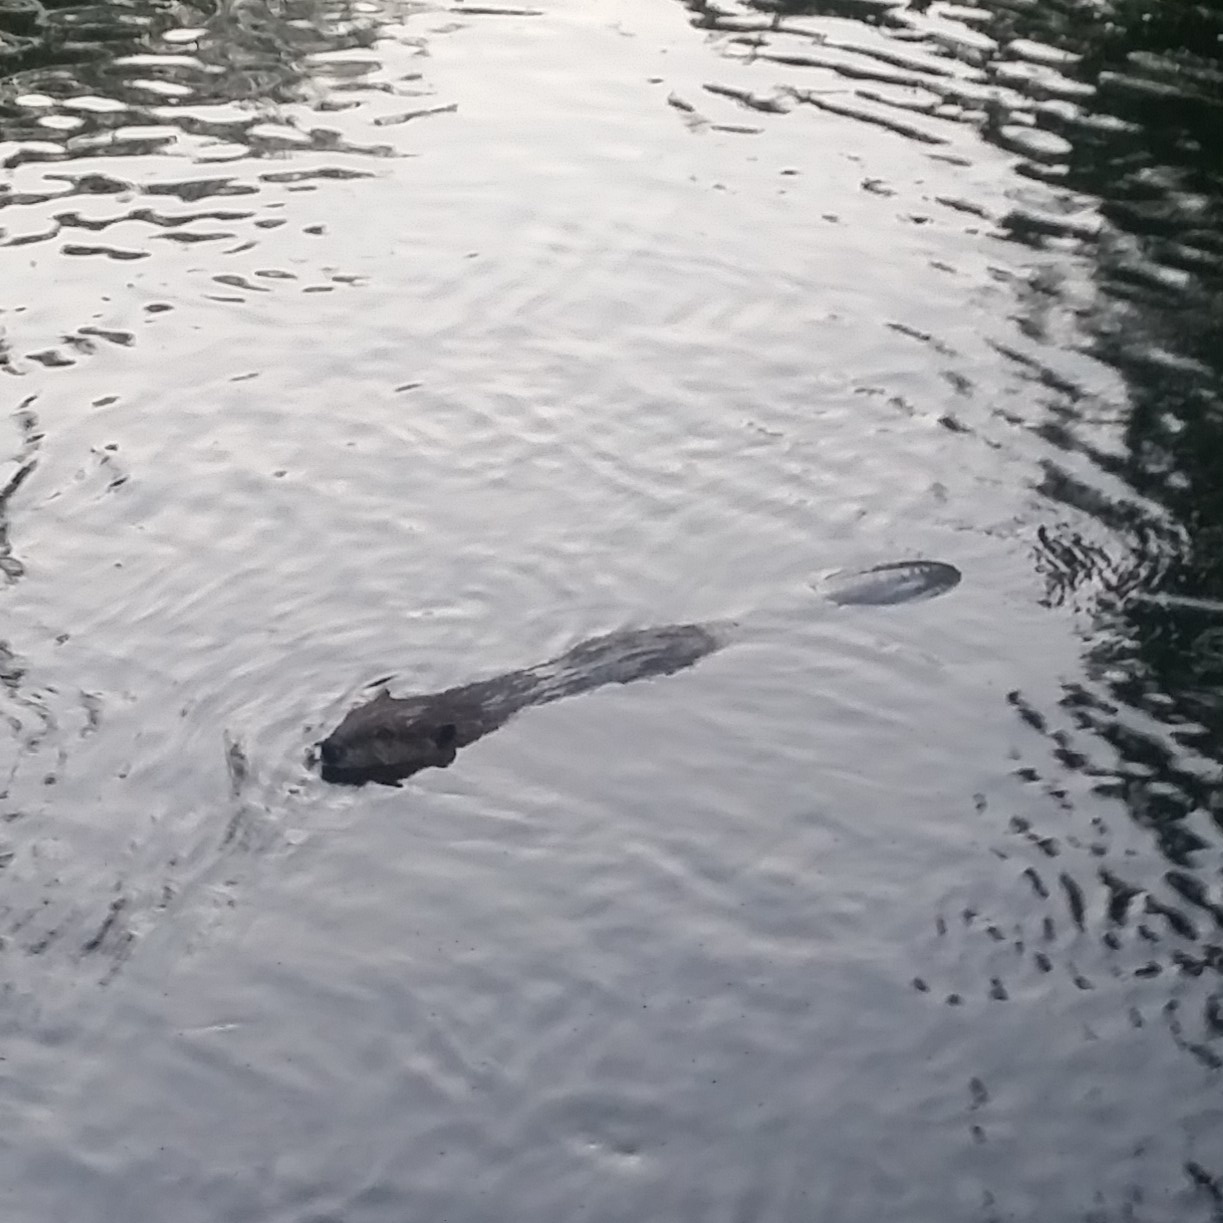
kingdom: Animalia
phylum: Chordata
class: Mammalia
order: Rodentia
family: Castoridae
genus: Castor
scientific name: Castor canadensis
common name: American beaver
